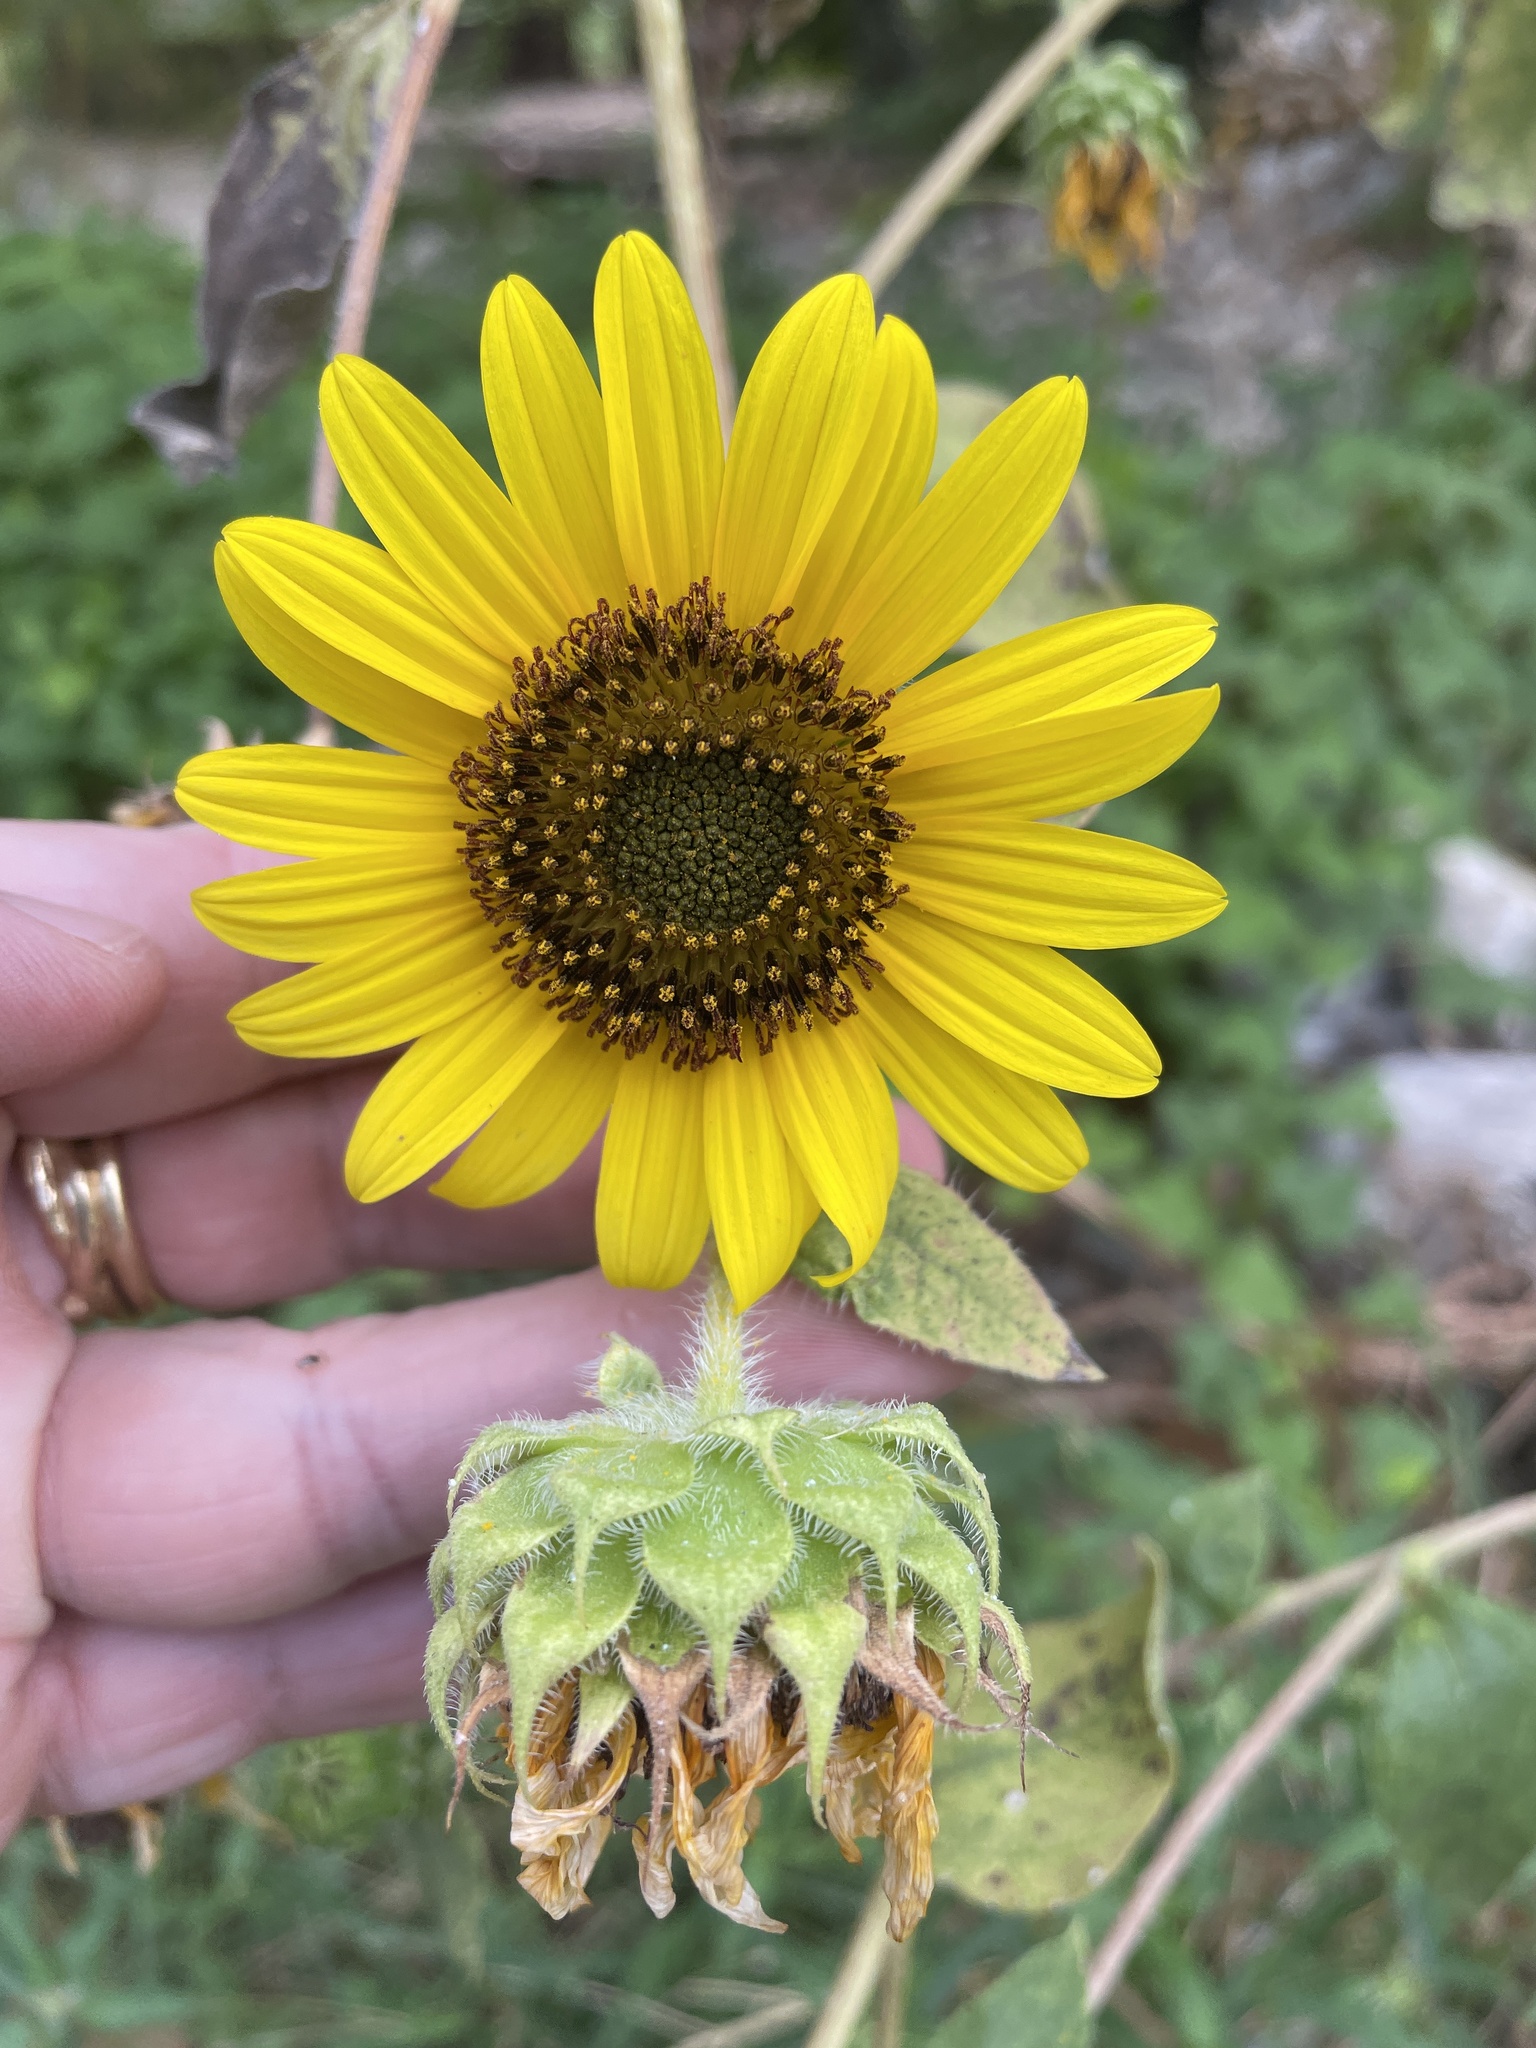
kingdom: Plantae
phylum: Tracheophyta
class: Magnoliopsida
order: Asterales
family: Asteraceae
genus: Helianthus
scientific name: Helianthus annuus
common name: Sunflower
